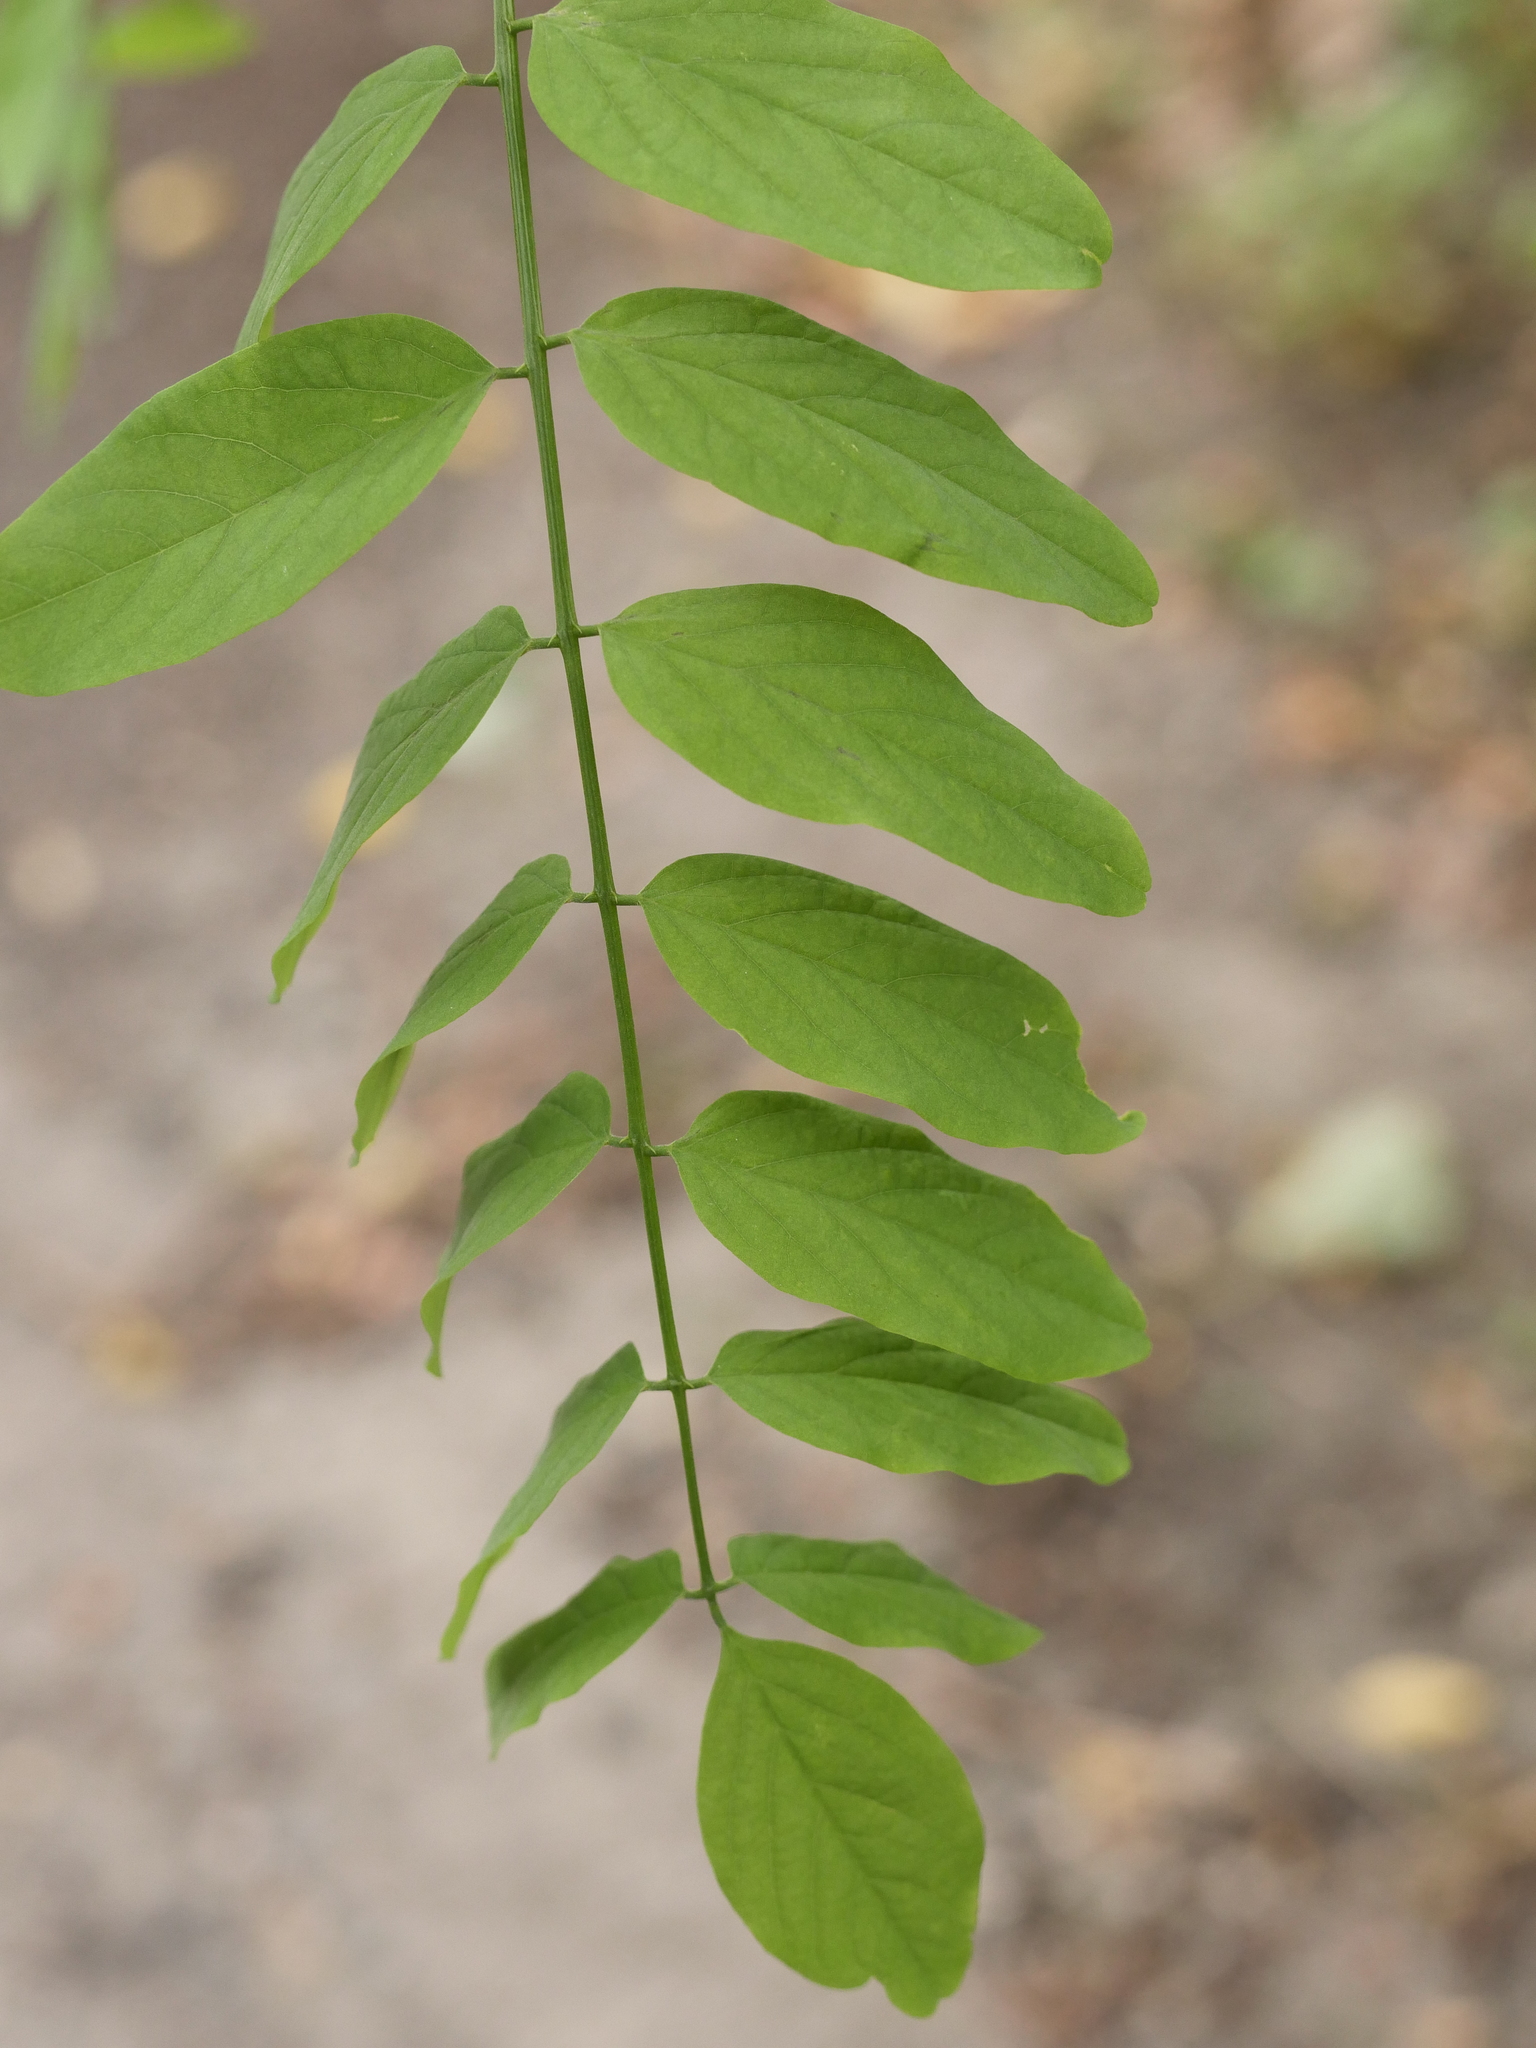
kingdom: Plantae
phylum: Tracheophyta
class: Magnoliopsida
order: Fabales
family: Fabaceae
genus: Robinia
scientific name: Robinia pseudoacacia
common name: Black locust
